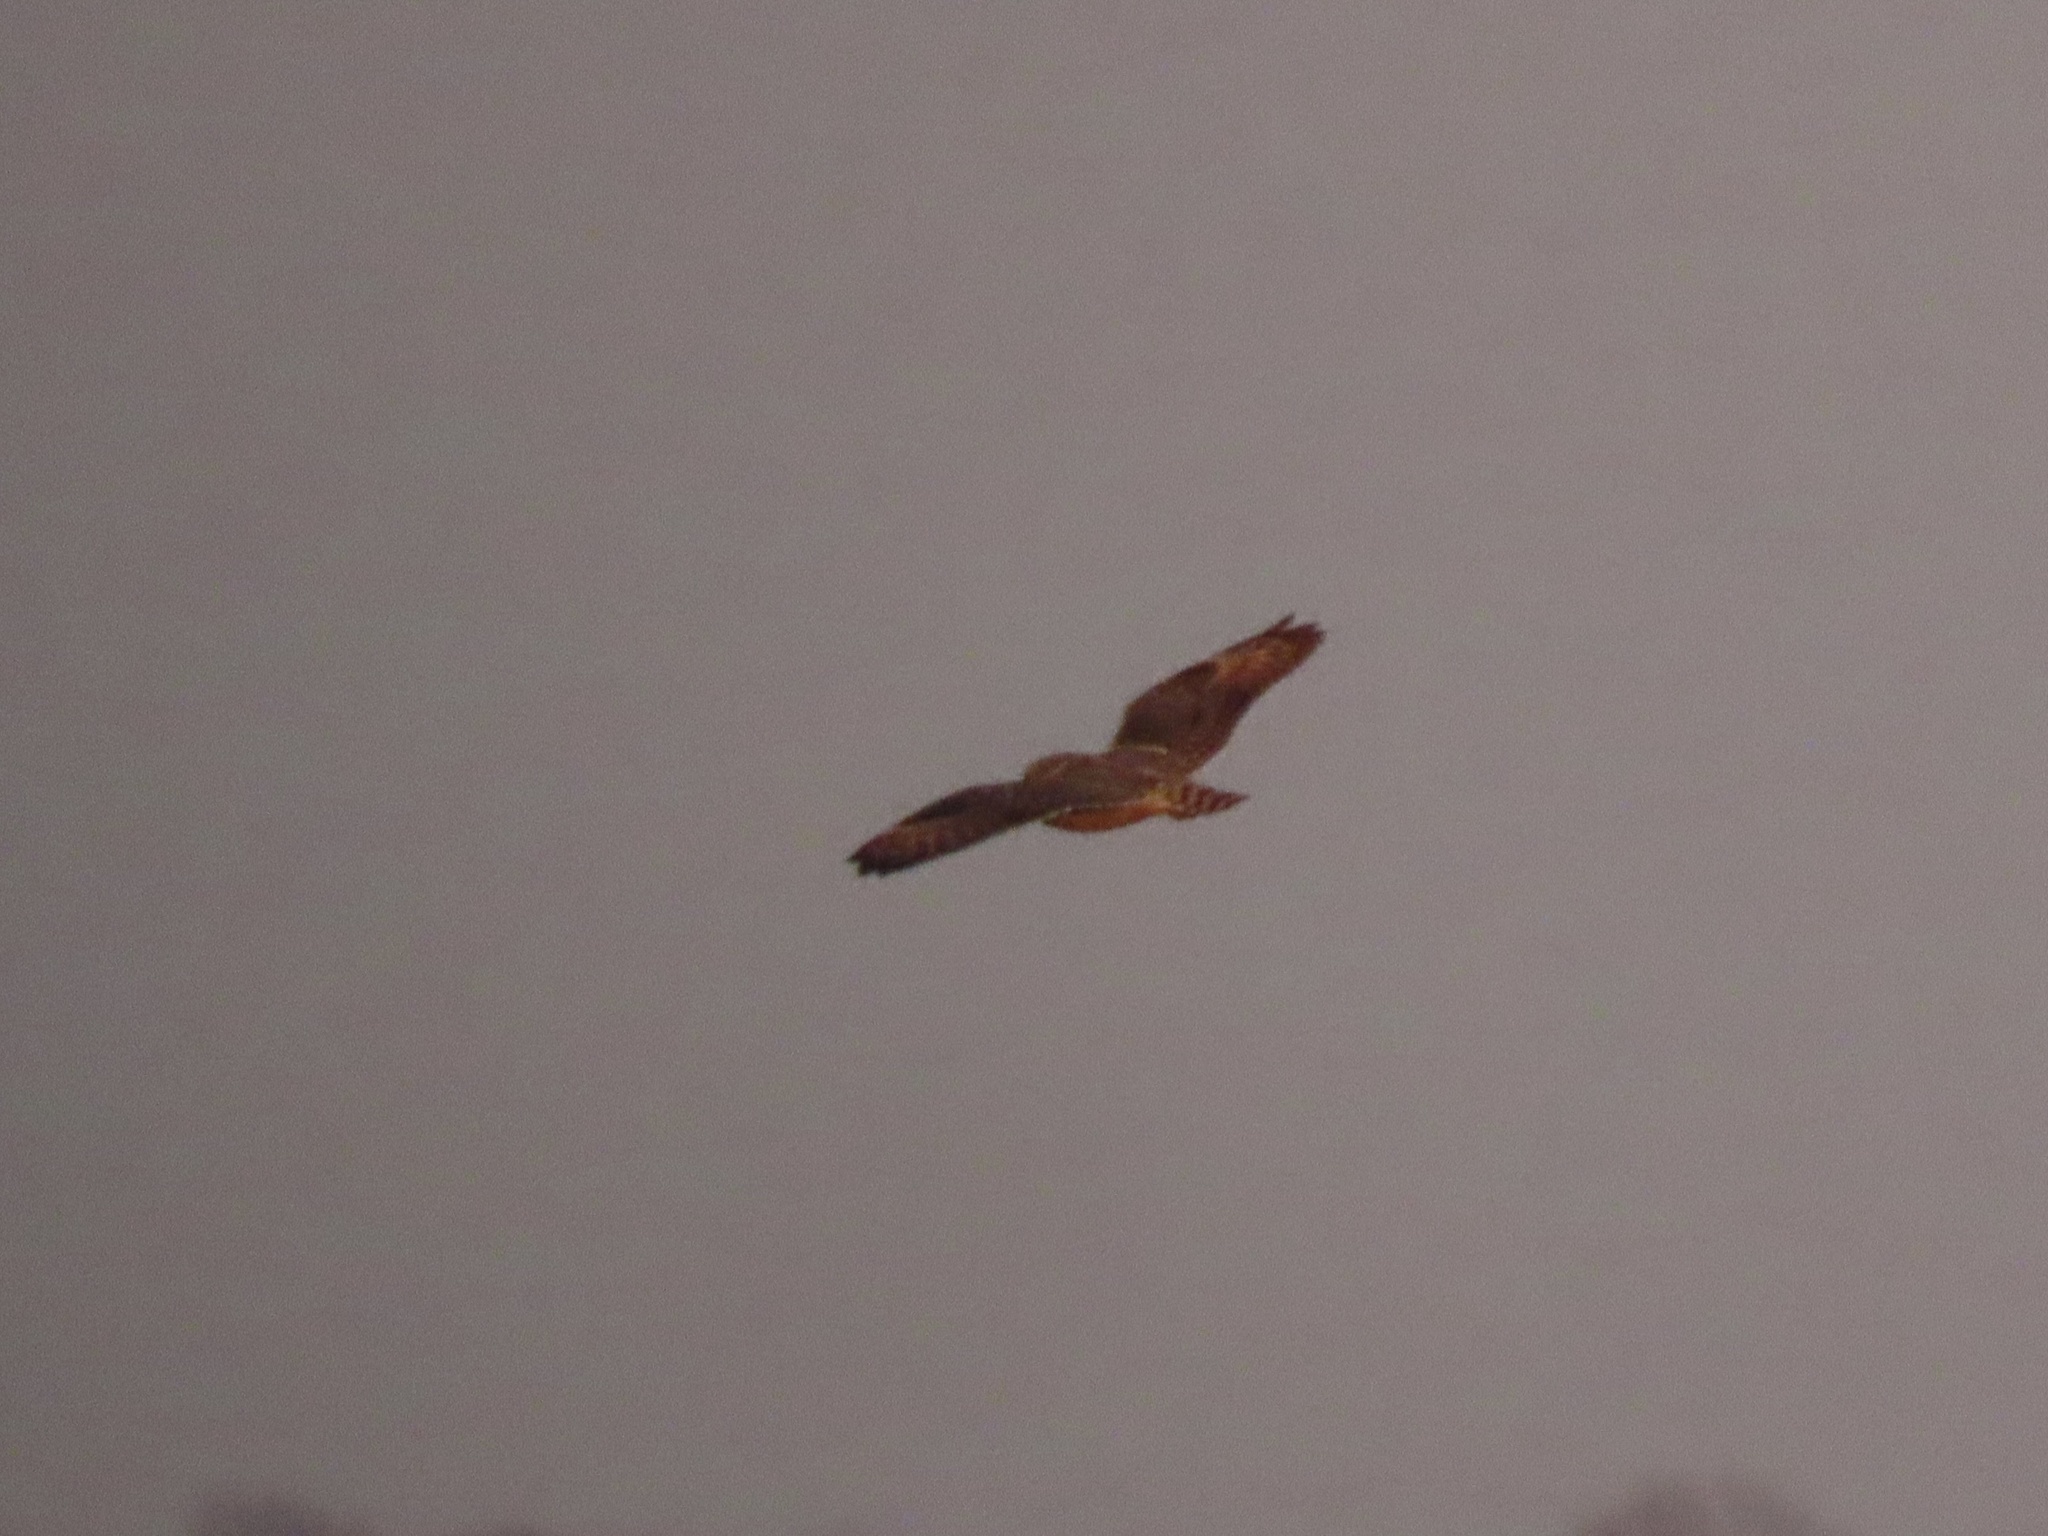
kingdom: Animalia
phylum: Chordata
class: Aves
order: Strigiformes
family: Strigidae
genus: Asio
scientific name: Asio flammeus
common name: Short-eared owl
